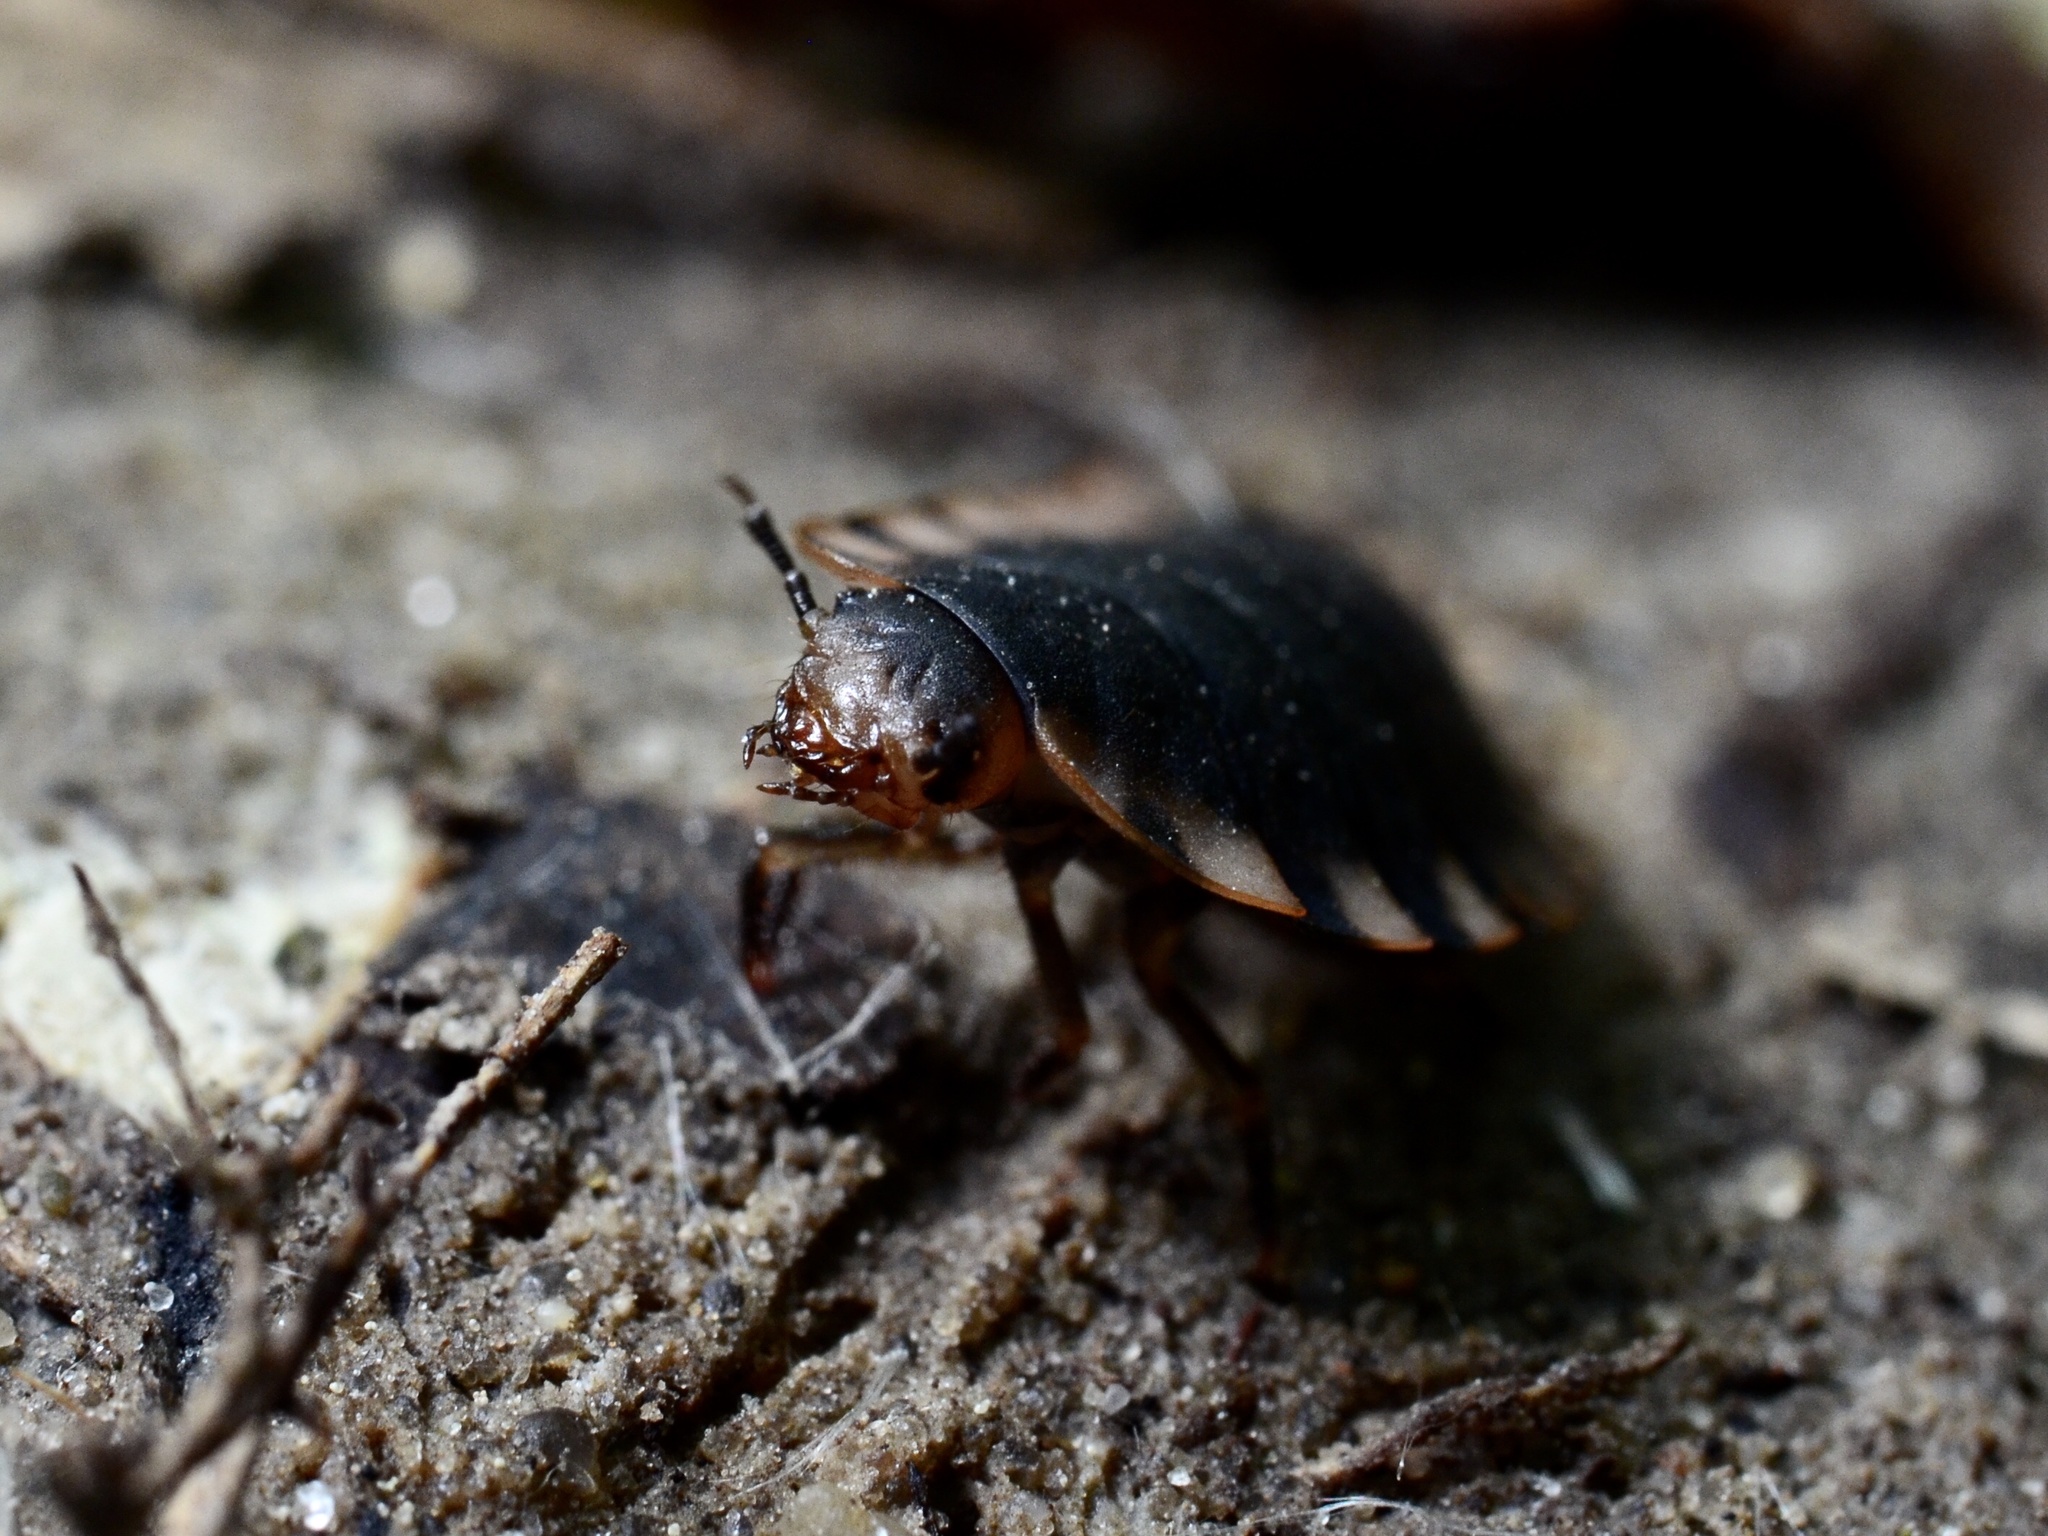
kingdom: Animalia
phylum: Arthropoda
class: Insecta
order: Coleoptera
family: Staphylinidae
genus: Oiceoptoma
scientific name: Oiceoptoma thoracicum
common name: Red-breasted carrion beetle
